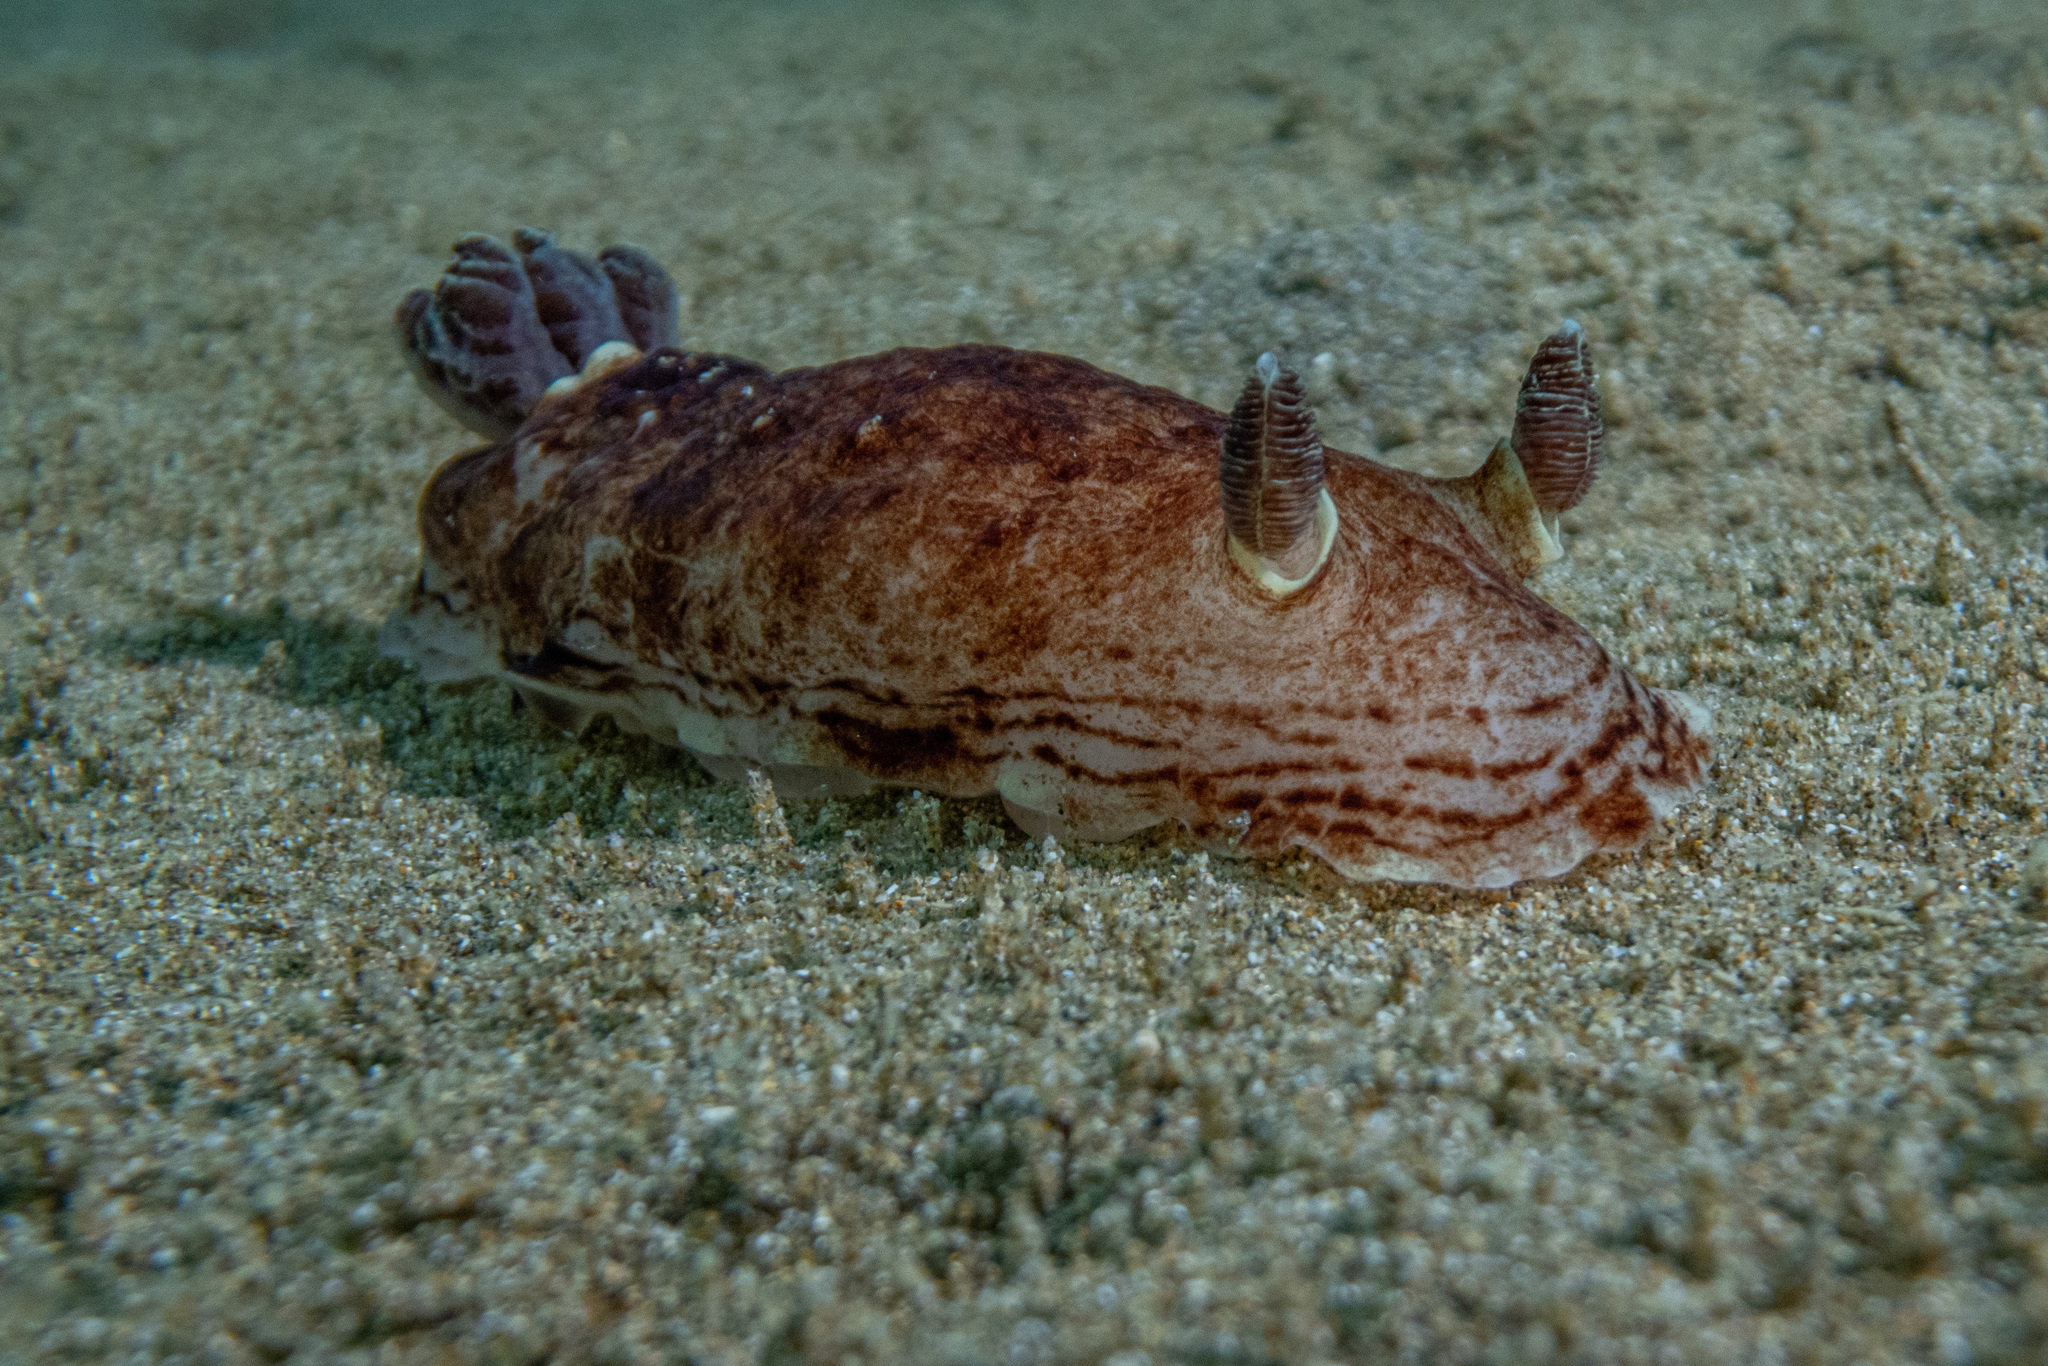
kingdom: Animalia
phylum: Mollusca
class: Gastropoda
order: Nudibranchia
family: Dorididae
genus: Aphelodoris
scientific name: Aphelodoris luctuosa
